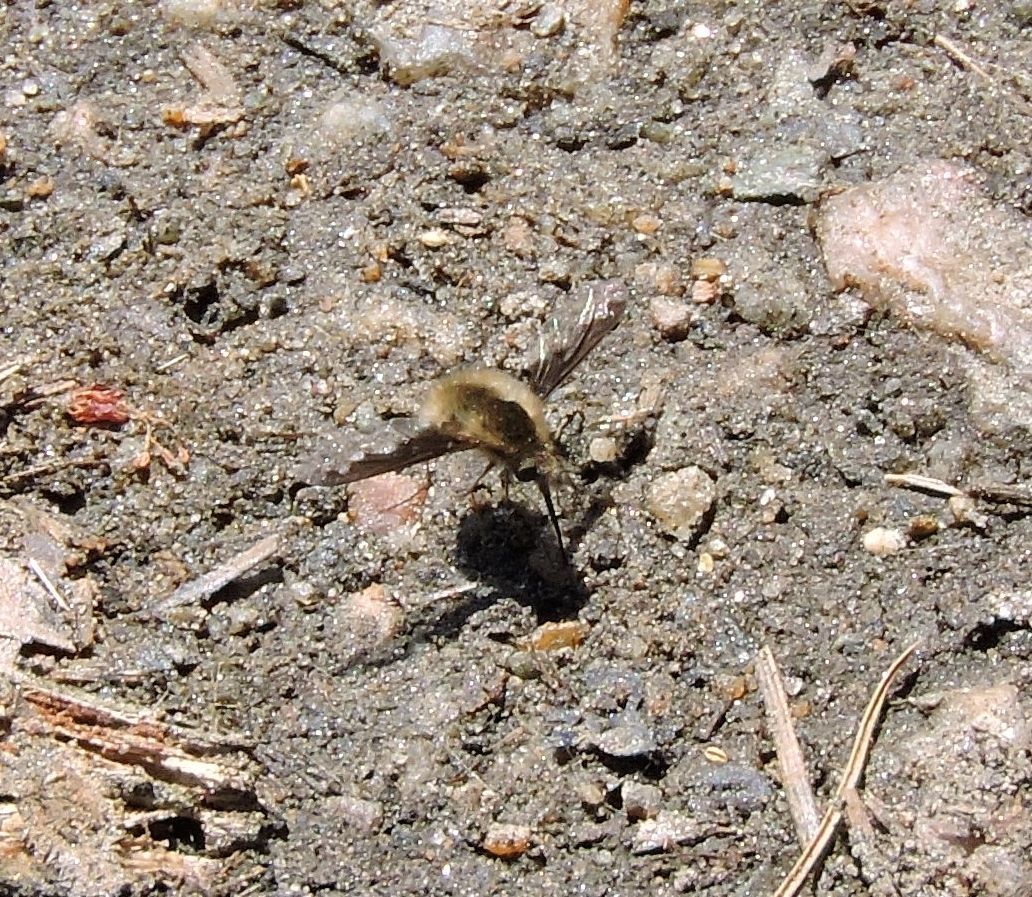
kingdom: Animalia
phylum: Arthropoda
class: Insecta
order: Diptera
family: Bombyliidae
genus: Bombylius
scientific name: Bombylius major
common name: Bee fly
